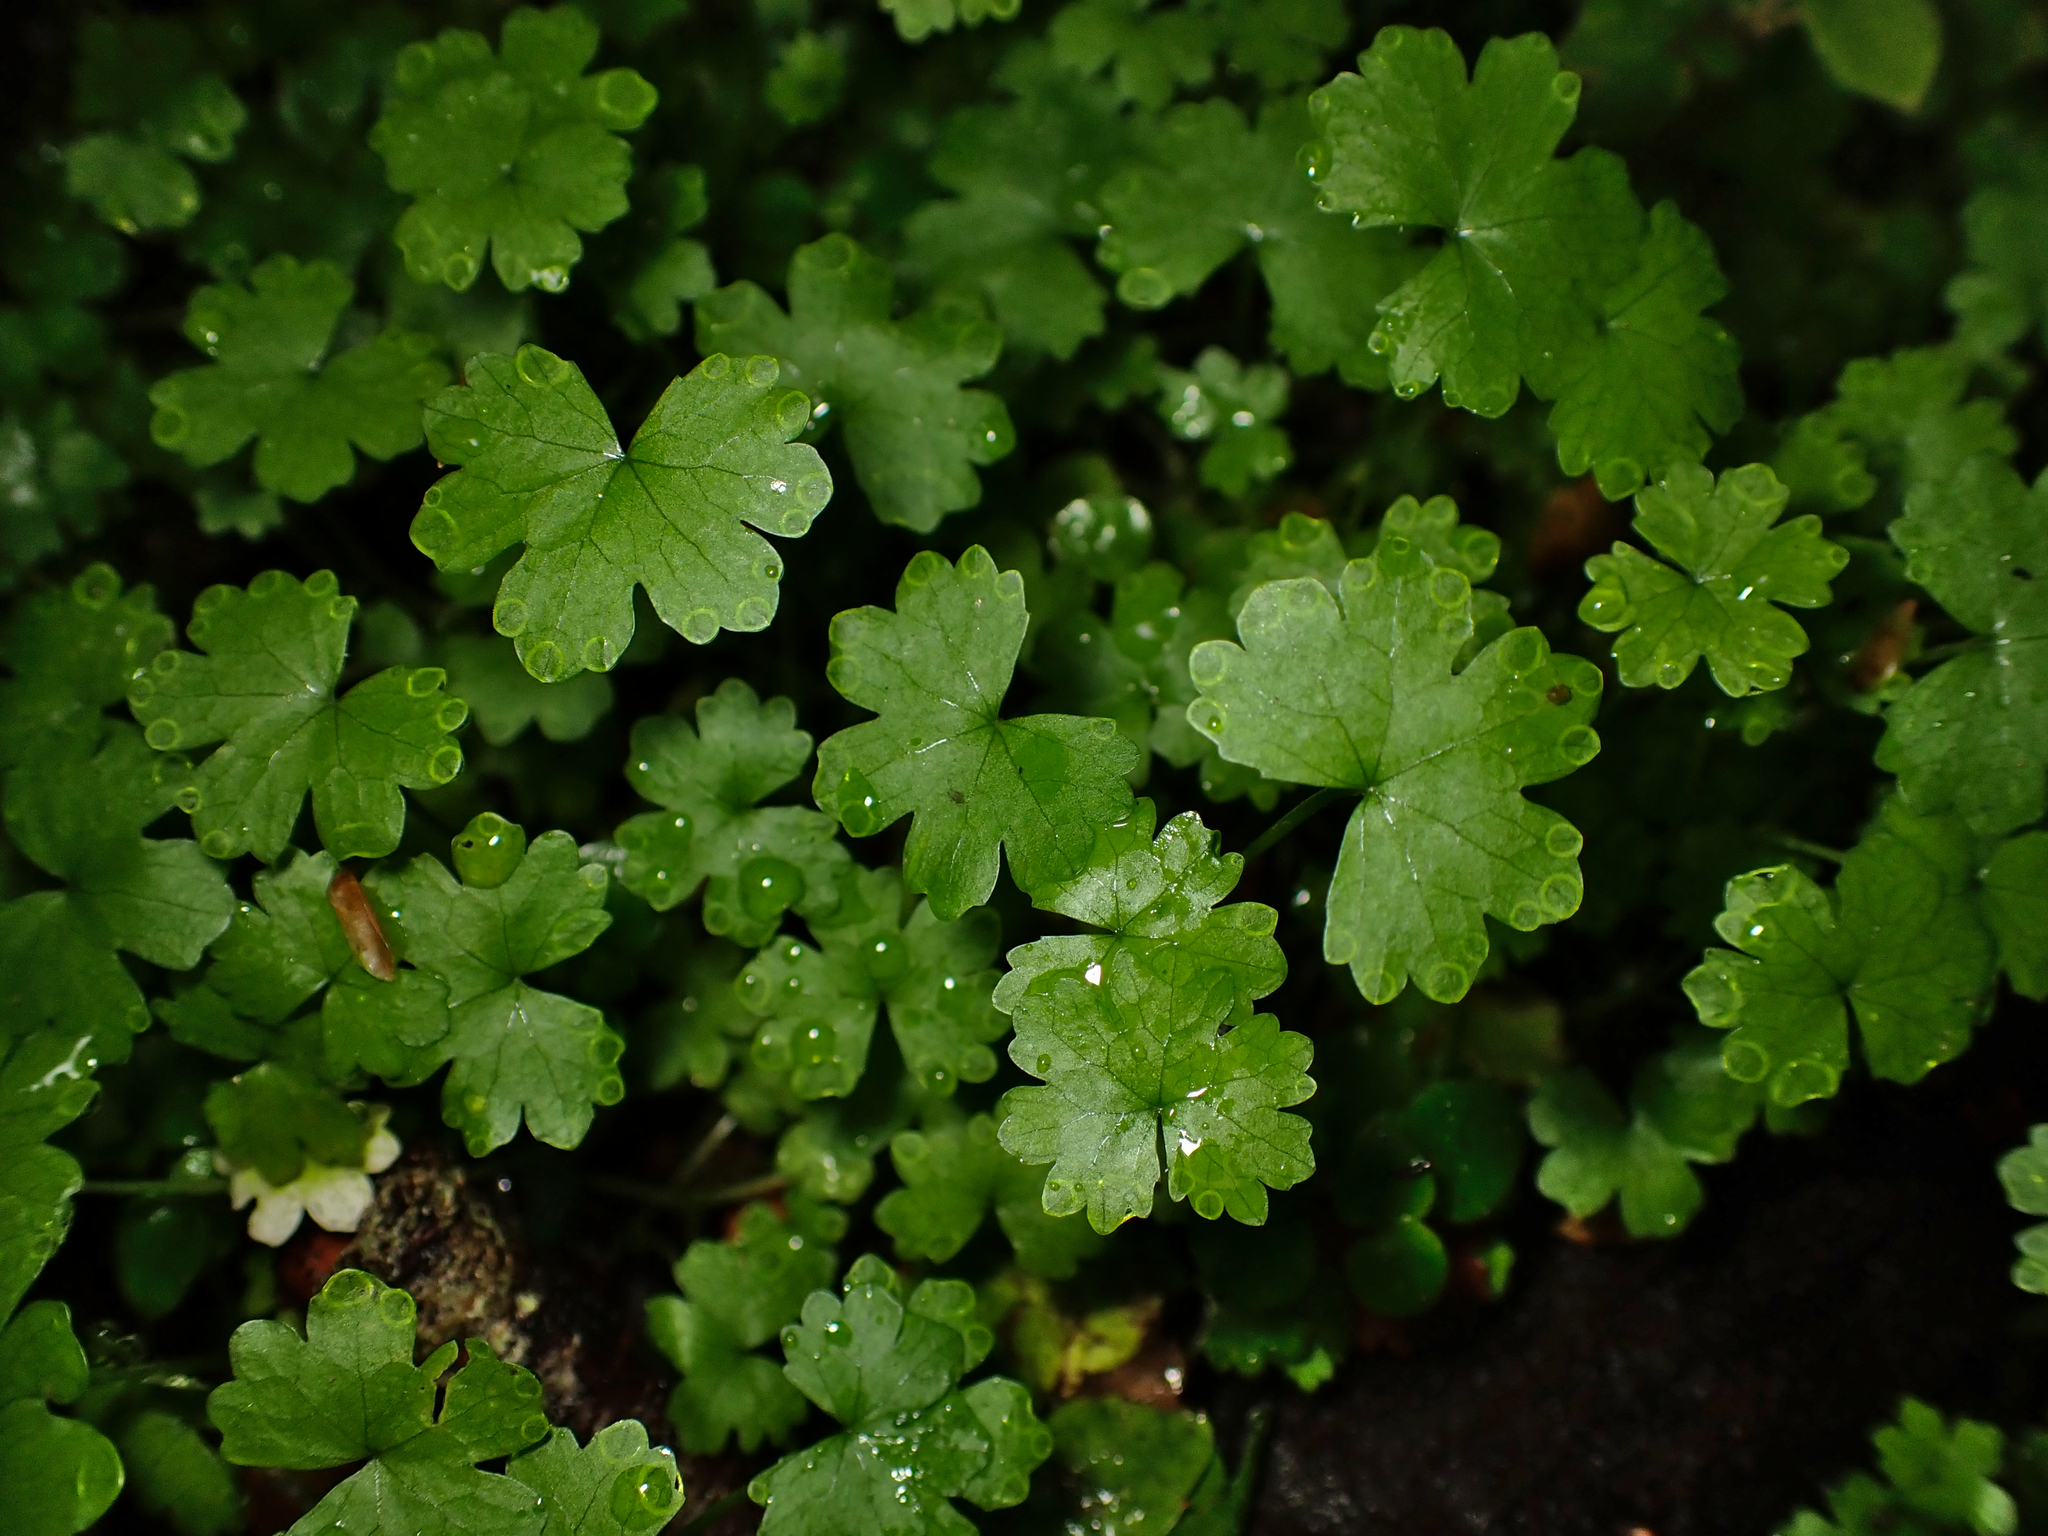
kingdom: Plantae
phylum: Tracheophyta
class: Magnoliopsida
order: Apiales
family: Araliaceae
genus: Hydrocotyle
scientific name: Hydrocotyle heteromeria
